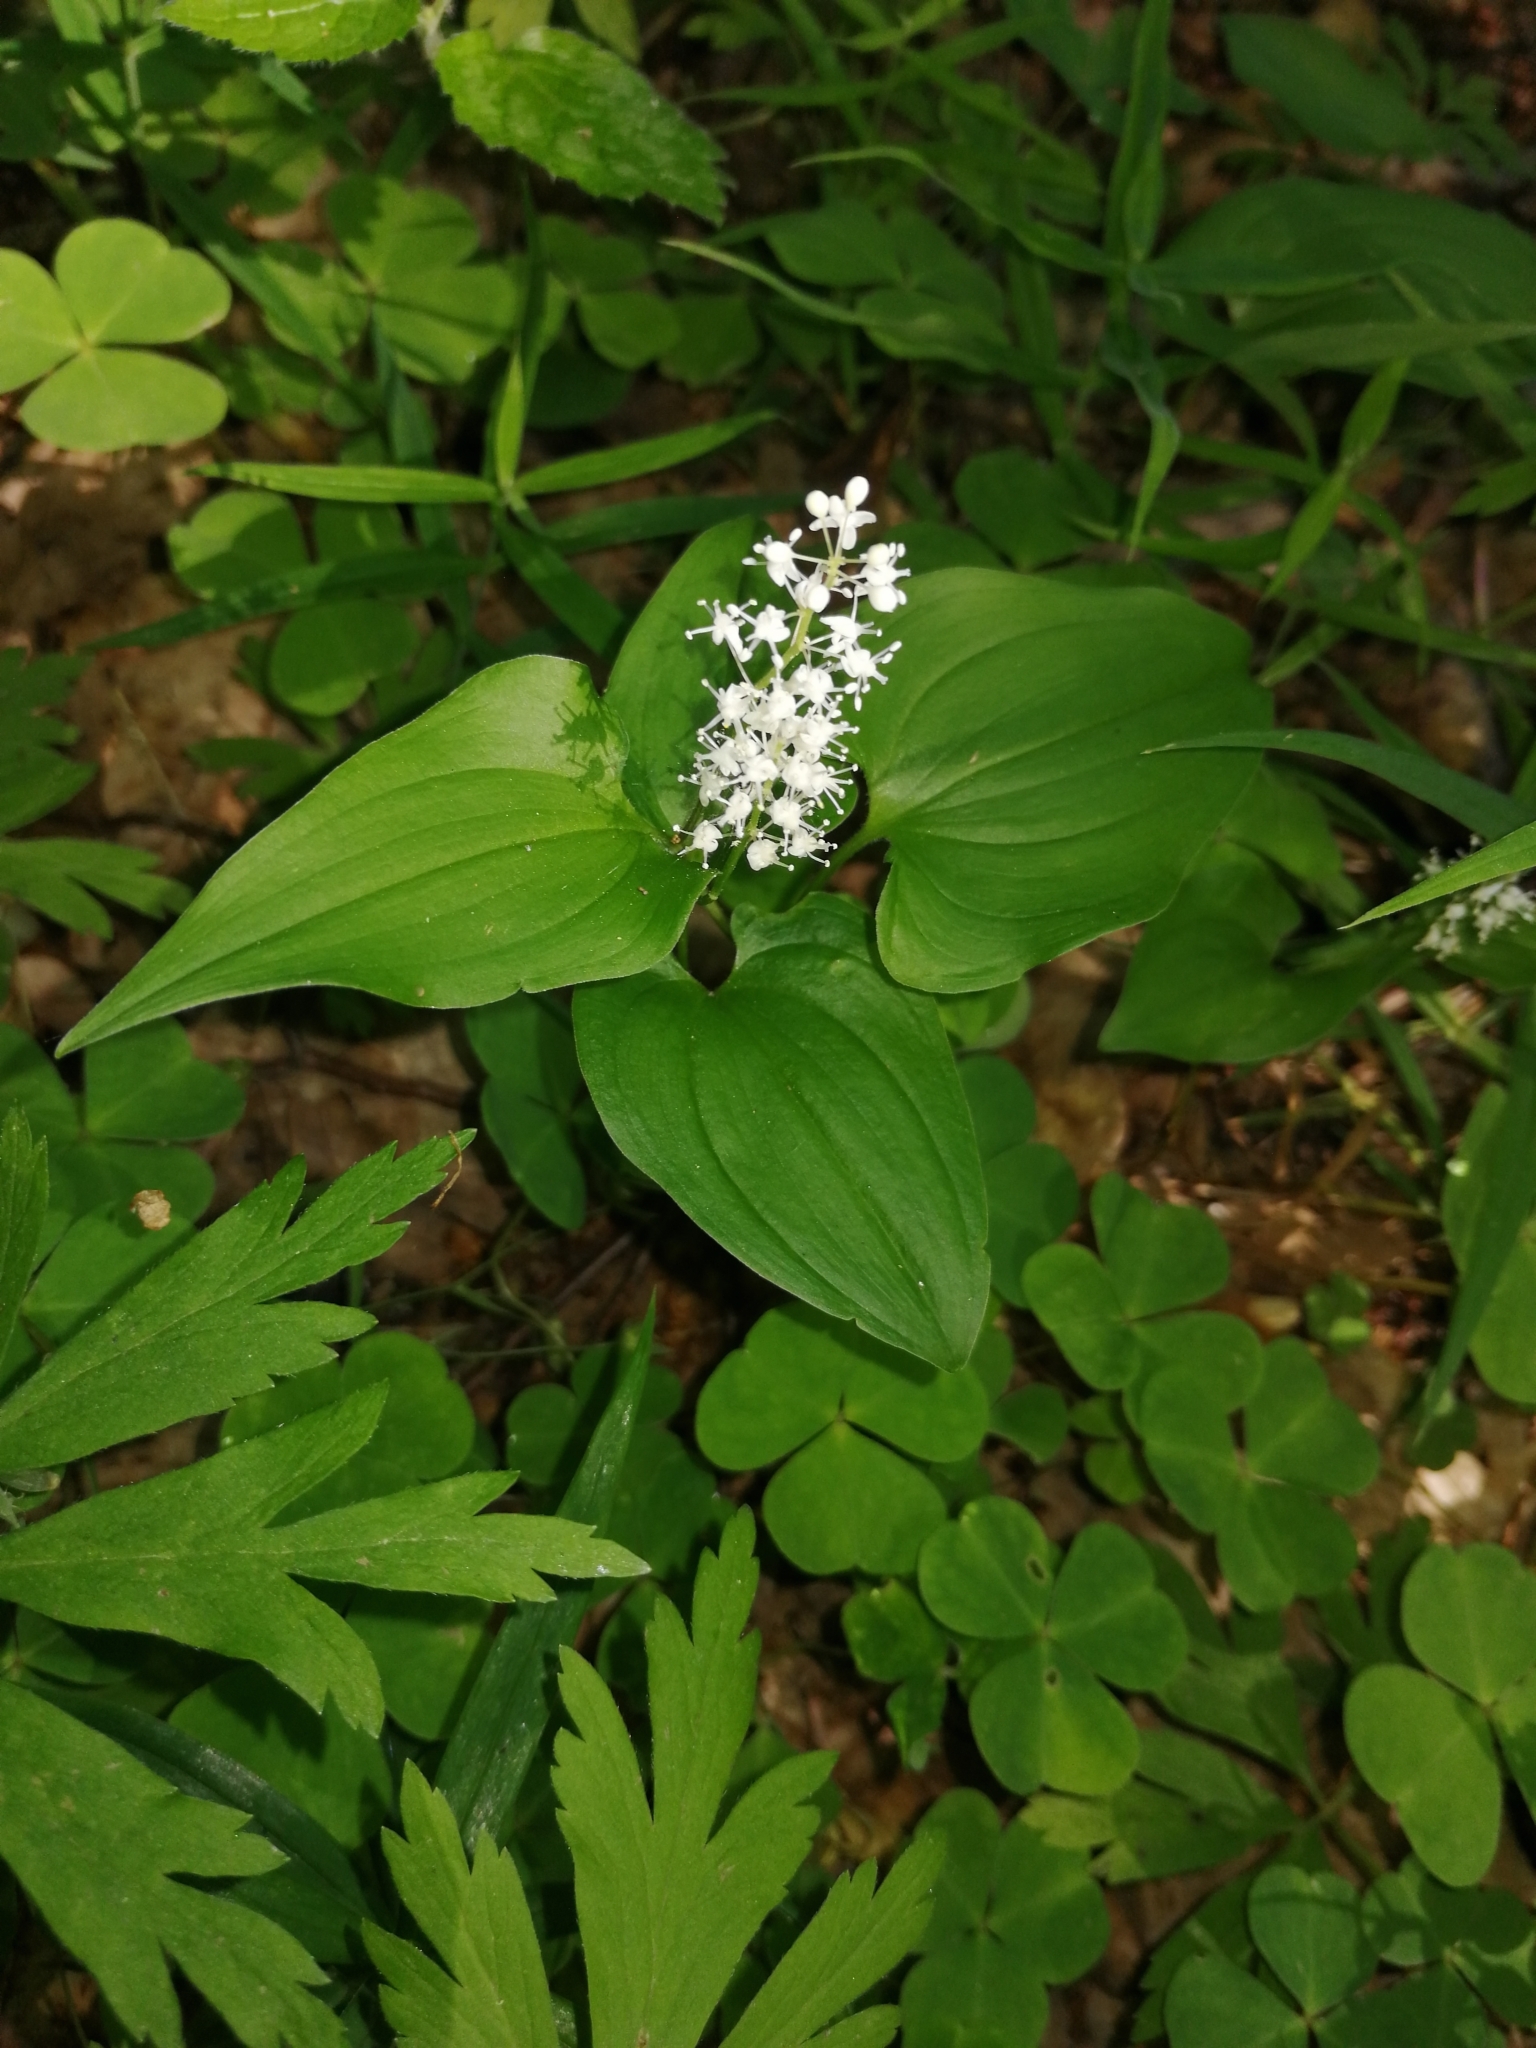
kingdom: Plantae
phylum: Tracheophyta
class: Liliopsida
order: Asparagales
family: Asparagaceae
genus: Maianthemum
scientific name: Maianthemum bifolium
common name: May lily
